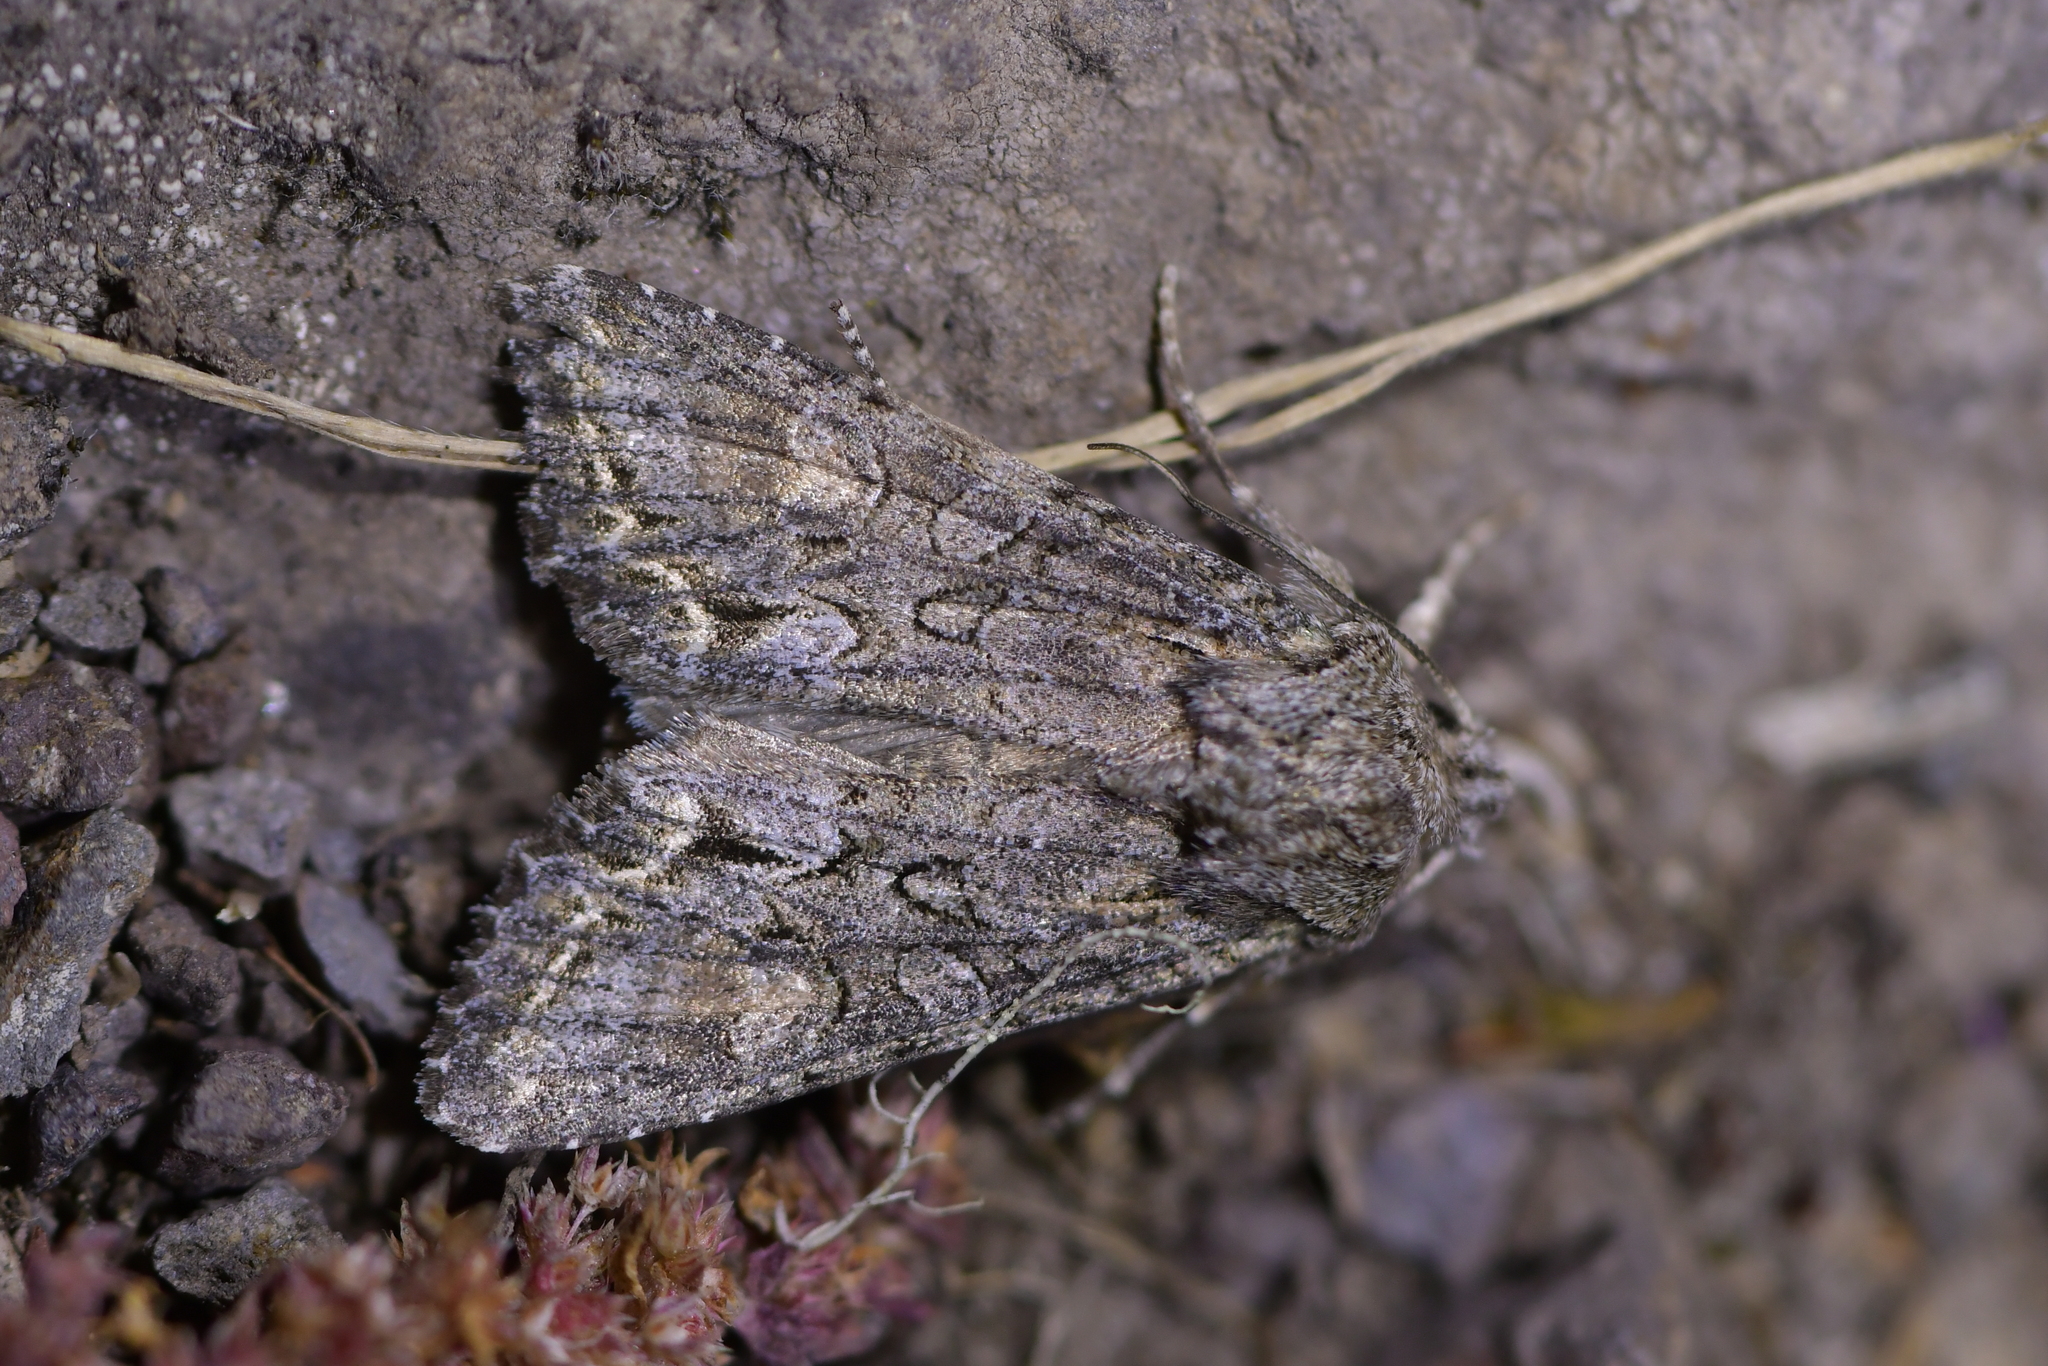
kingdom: Animalia
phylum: Arthropoda
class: Insecta
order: Lepidoptera
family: Noctuidae
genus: Ichneutica
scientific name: Ichneutica mutans
